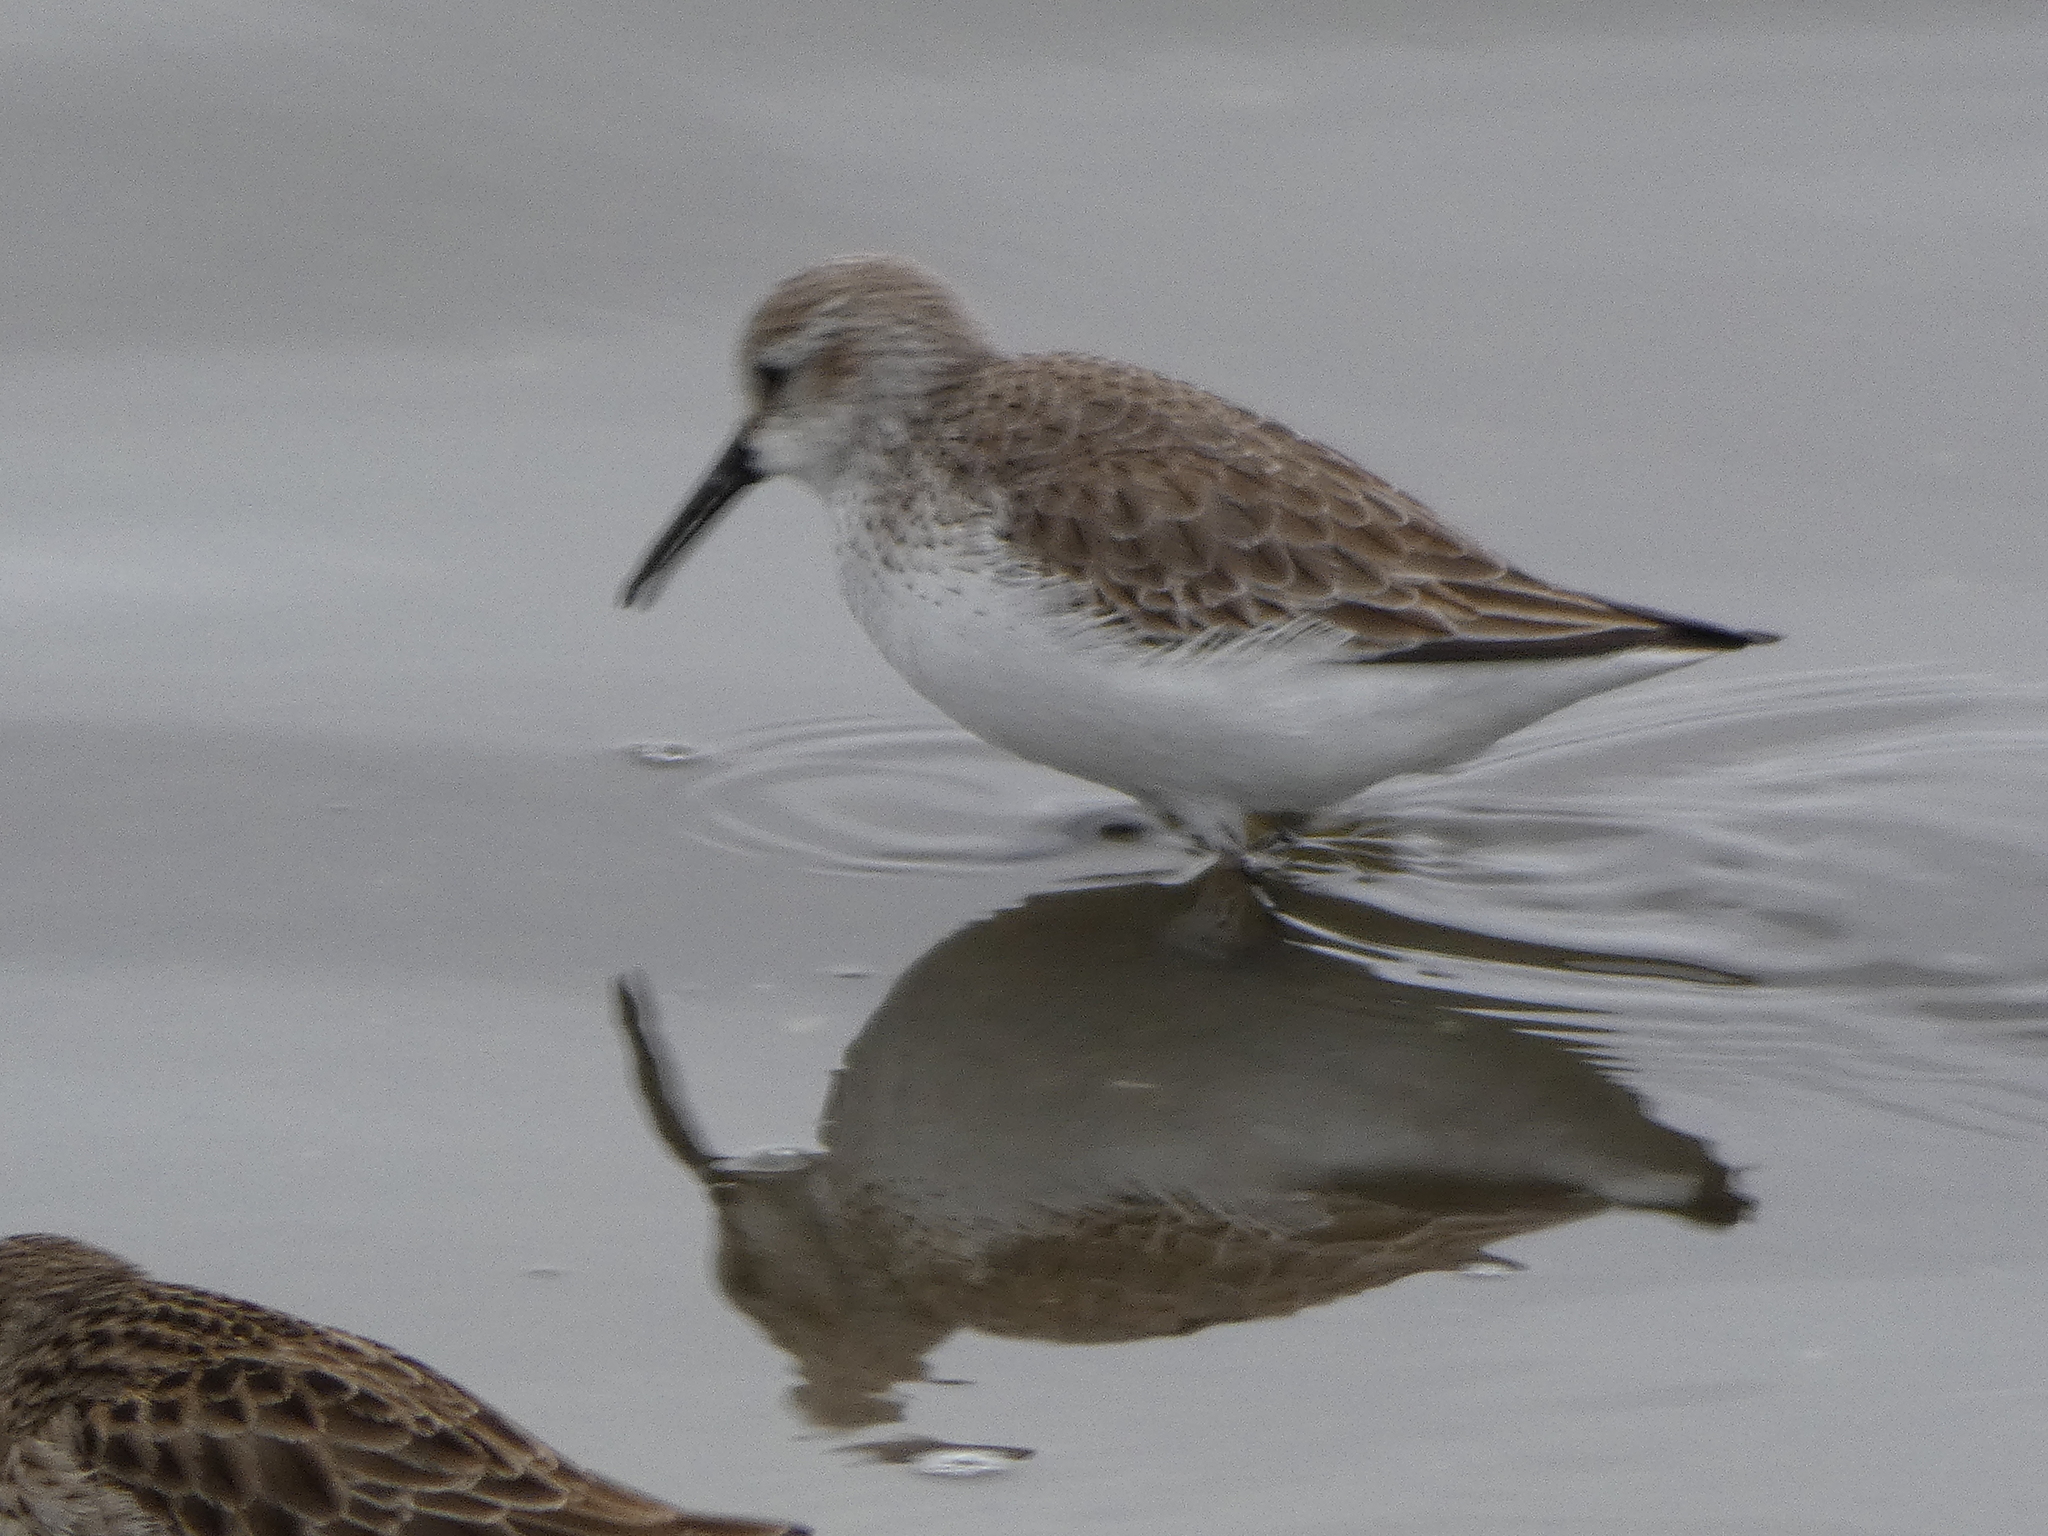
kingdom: Animalia
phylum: Chordata
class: Aves
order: Charadriiformes
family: Scolopacidae
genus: Calidris
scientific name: Calidris mauri
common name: Western sandpiper
